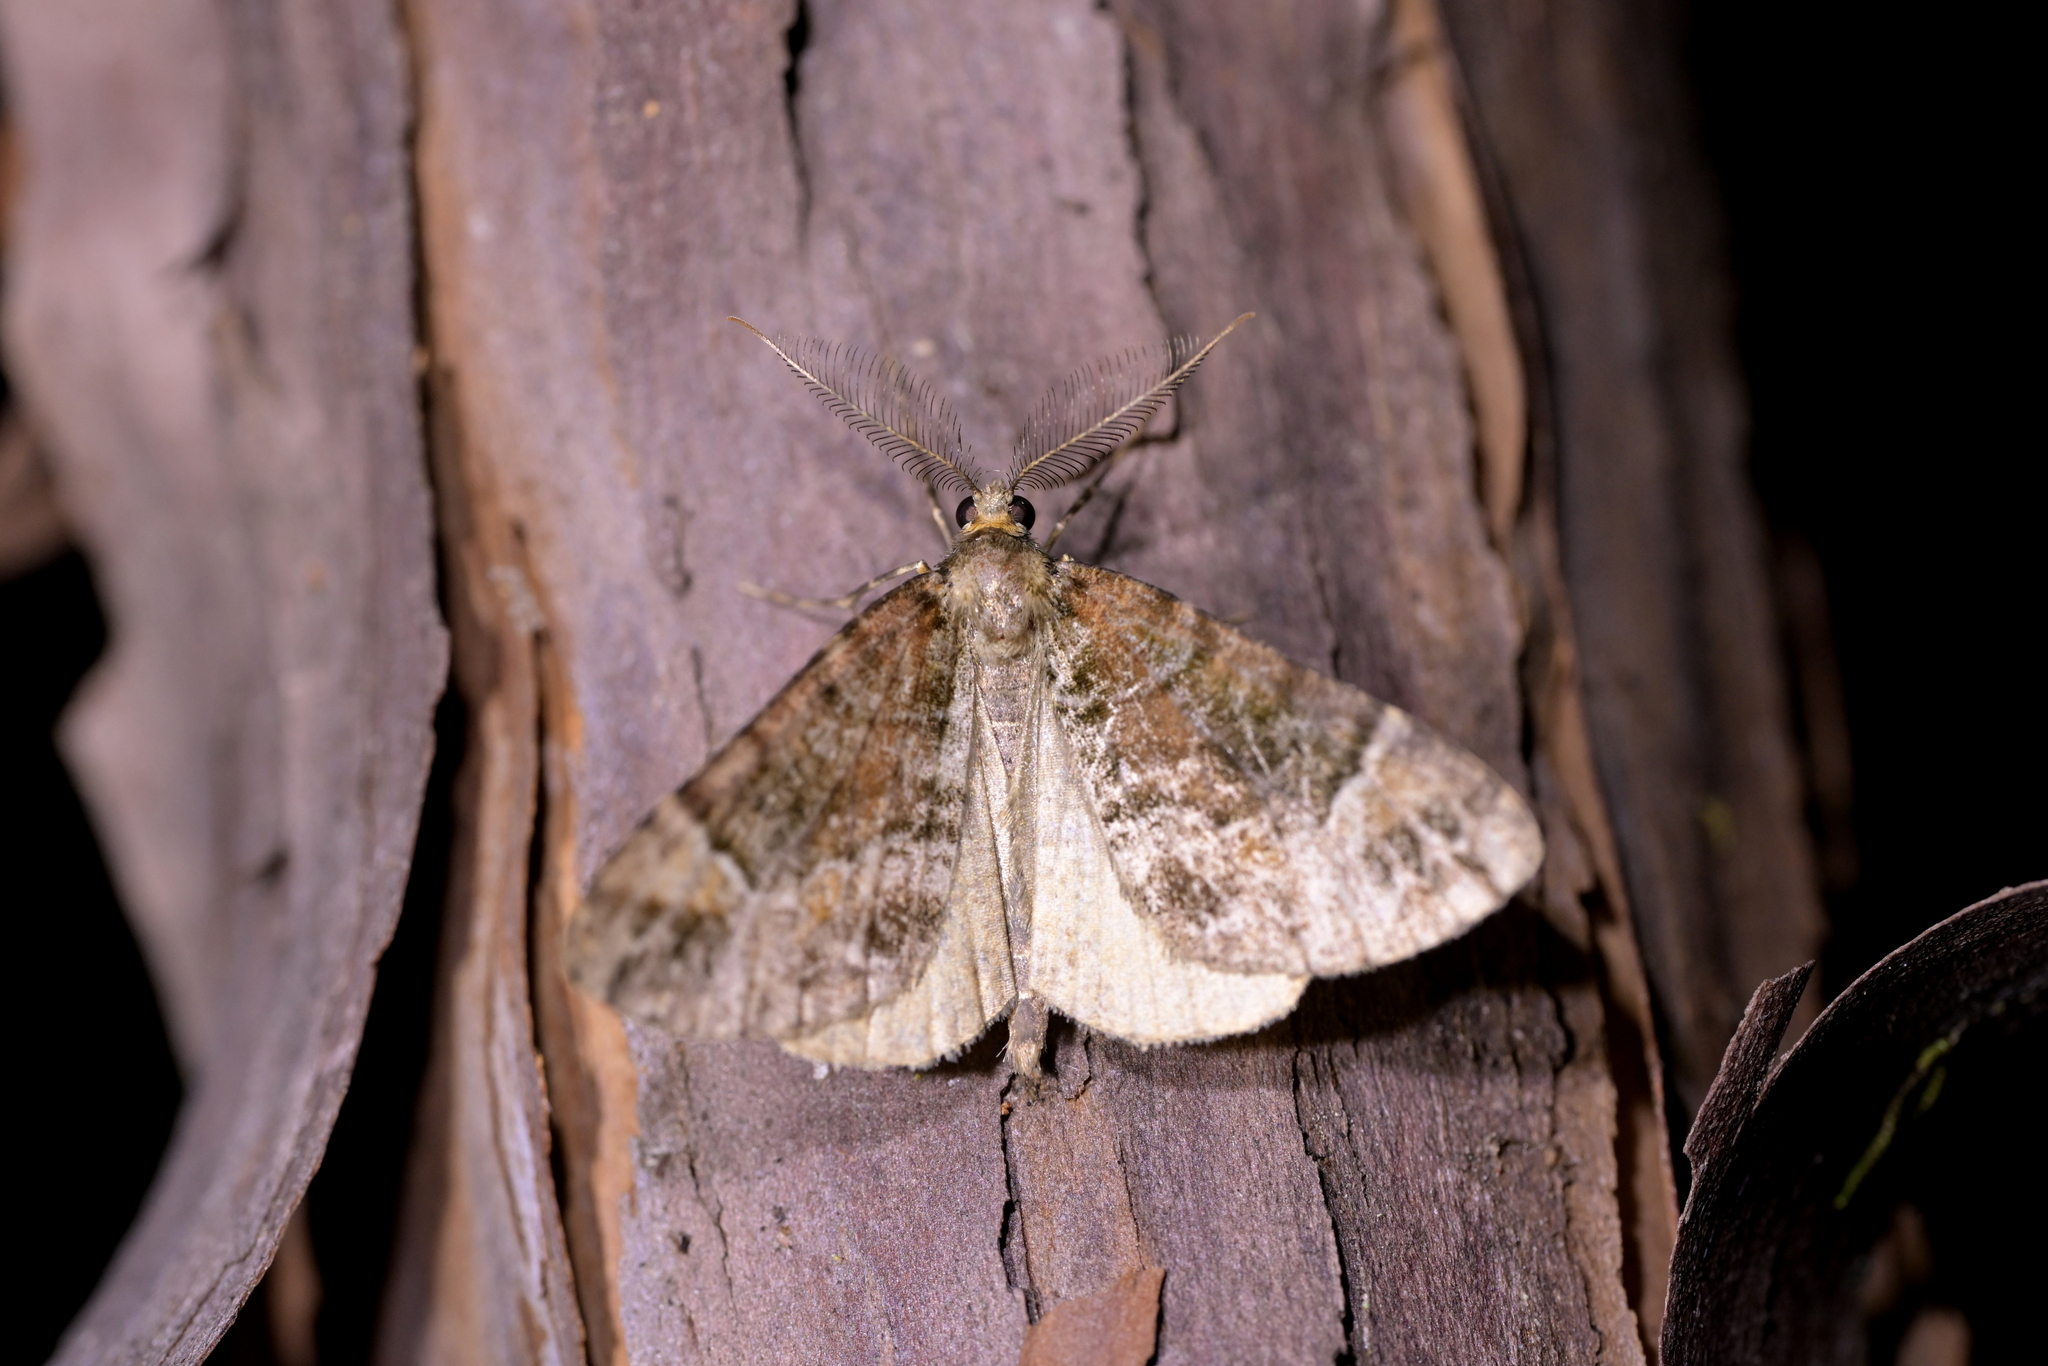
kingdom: Animalia
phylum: Arthropoda
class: Insecta
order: Lepidoptera
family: Geometridae
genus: Pseudocoremia
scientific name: Pseudocoremia productata
